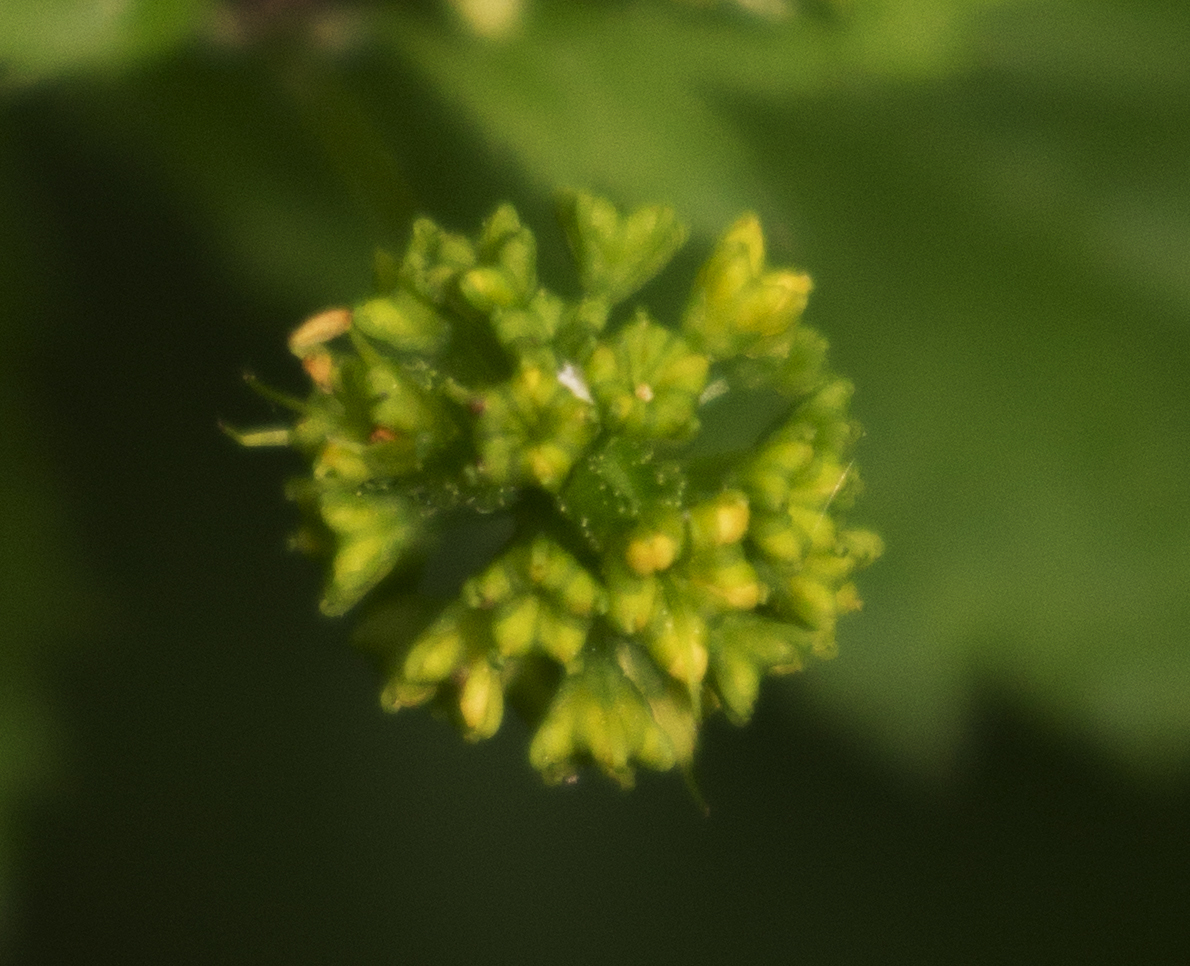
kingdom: Plantae
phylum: Tracheophyta
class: Magnoliopsida
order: Apiales
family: Apiaceae
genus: Sanicula
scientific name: Sanicula odorata
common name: Cluster sanicle
